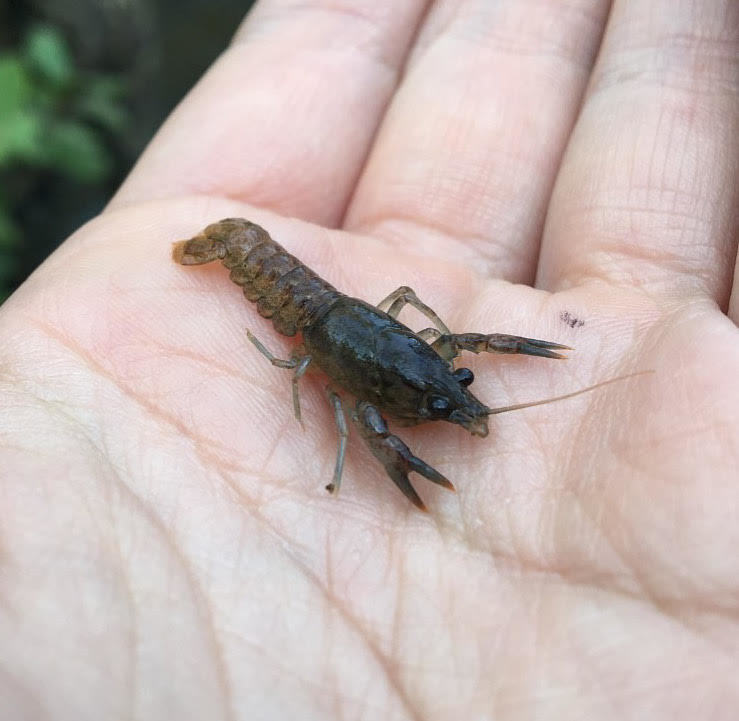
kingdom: Animalia
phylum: Arthropoda
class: Malacostraca
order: Decapoda
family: Cambaridae
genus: Faxonius
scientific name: Faxonius virilis
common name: Virile crayfish
